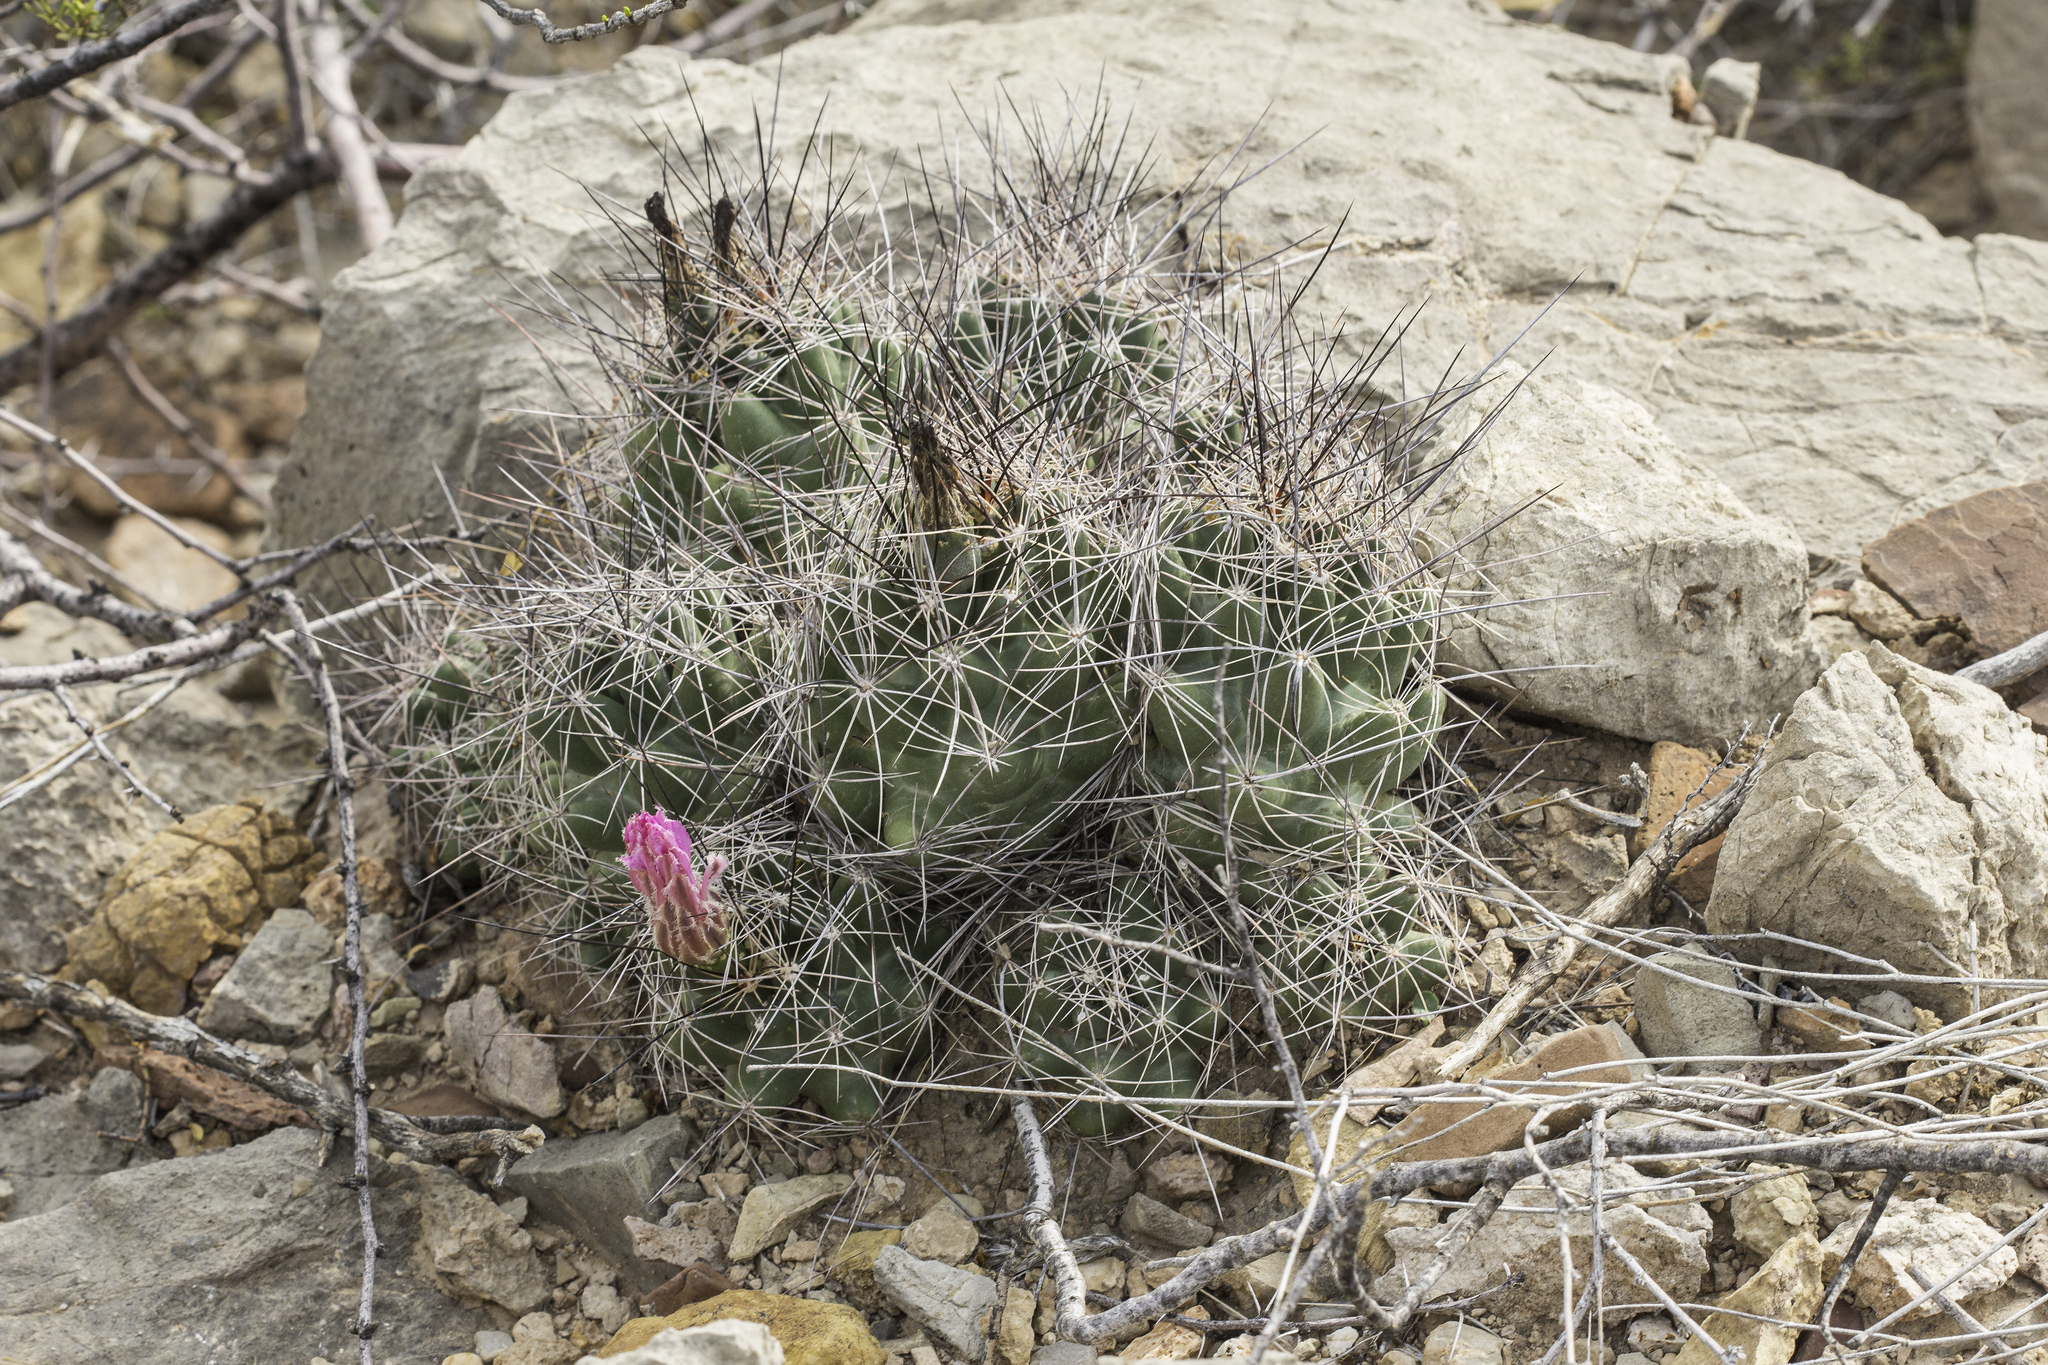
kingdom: Plantae
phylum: Tracheophyta
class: Magnoliopsida
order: Caryophyllales
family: Cactaceae
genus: Coryphantha
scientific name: Coryphantha macromeris
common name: Nipple beehive cactus
